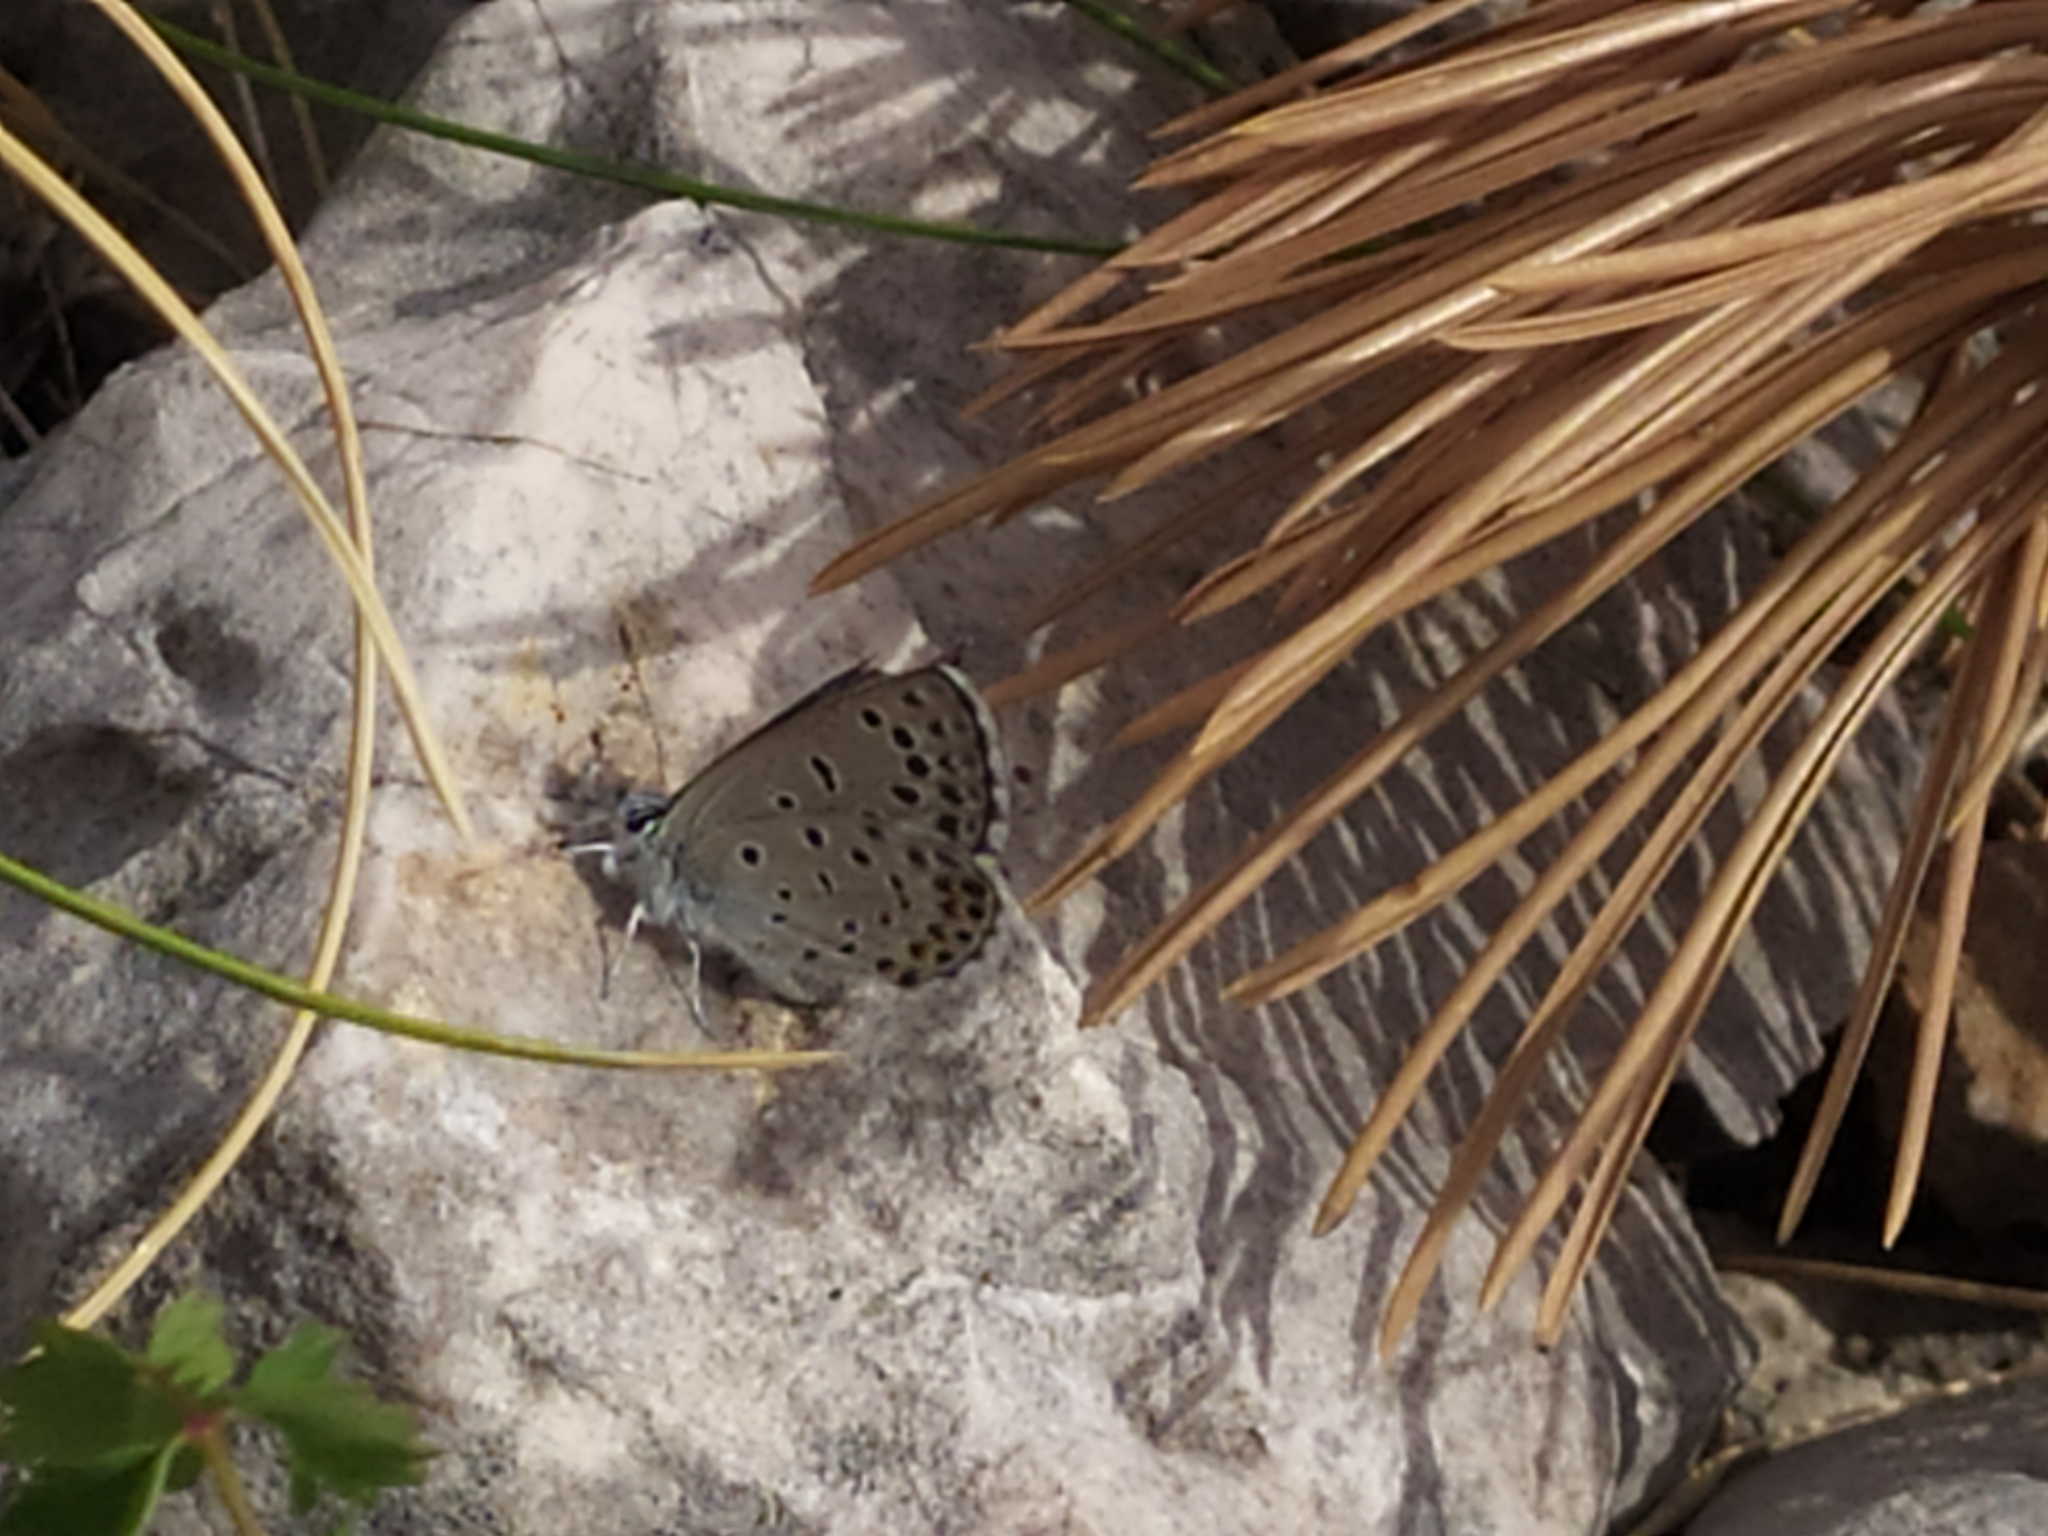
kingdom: Animalia
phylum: Arthropoda
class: Insecta
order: Lepidoptera
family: Lycaenidae
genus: Pseudophilotes
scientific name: Pseudophilotes baton
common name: Baton blue
